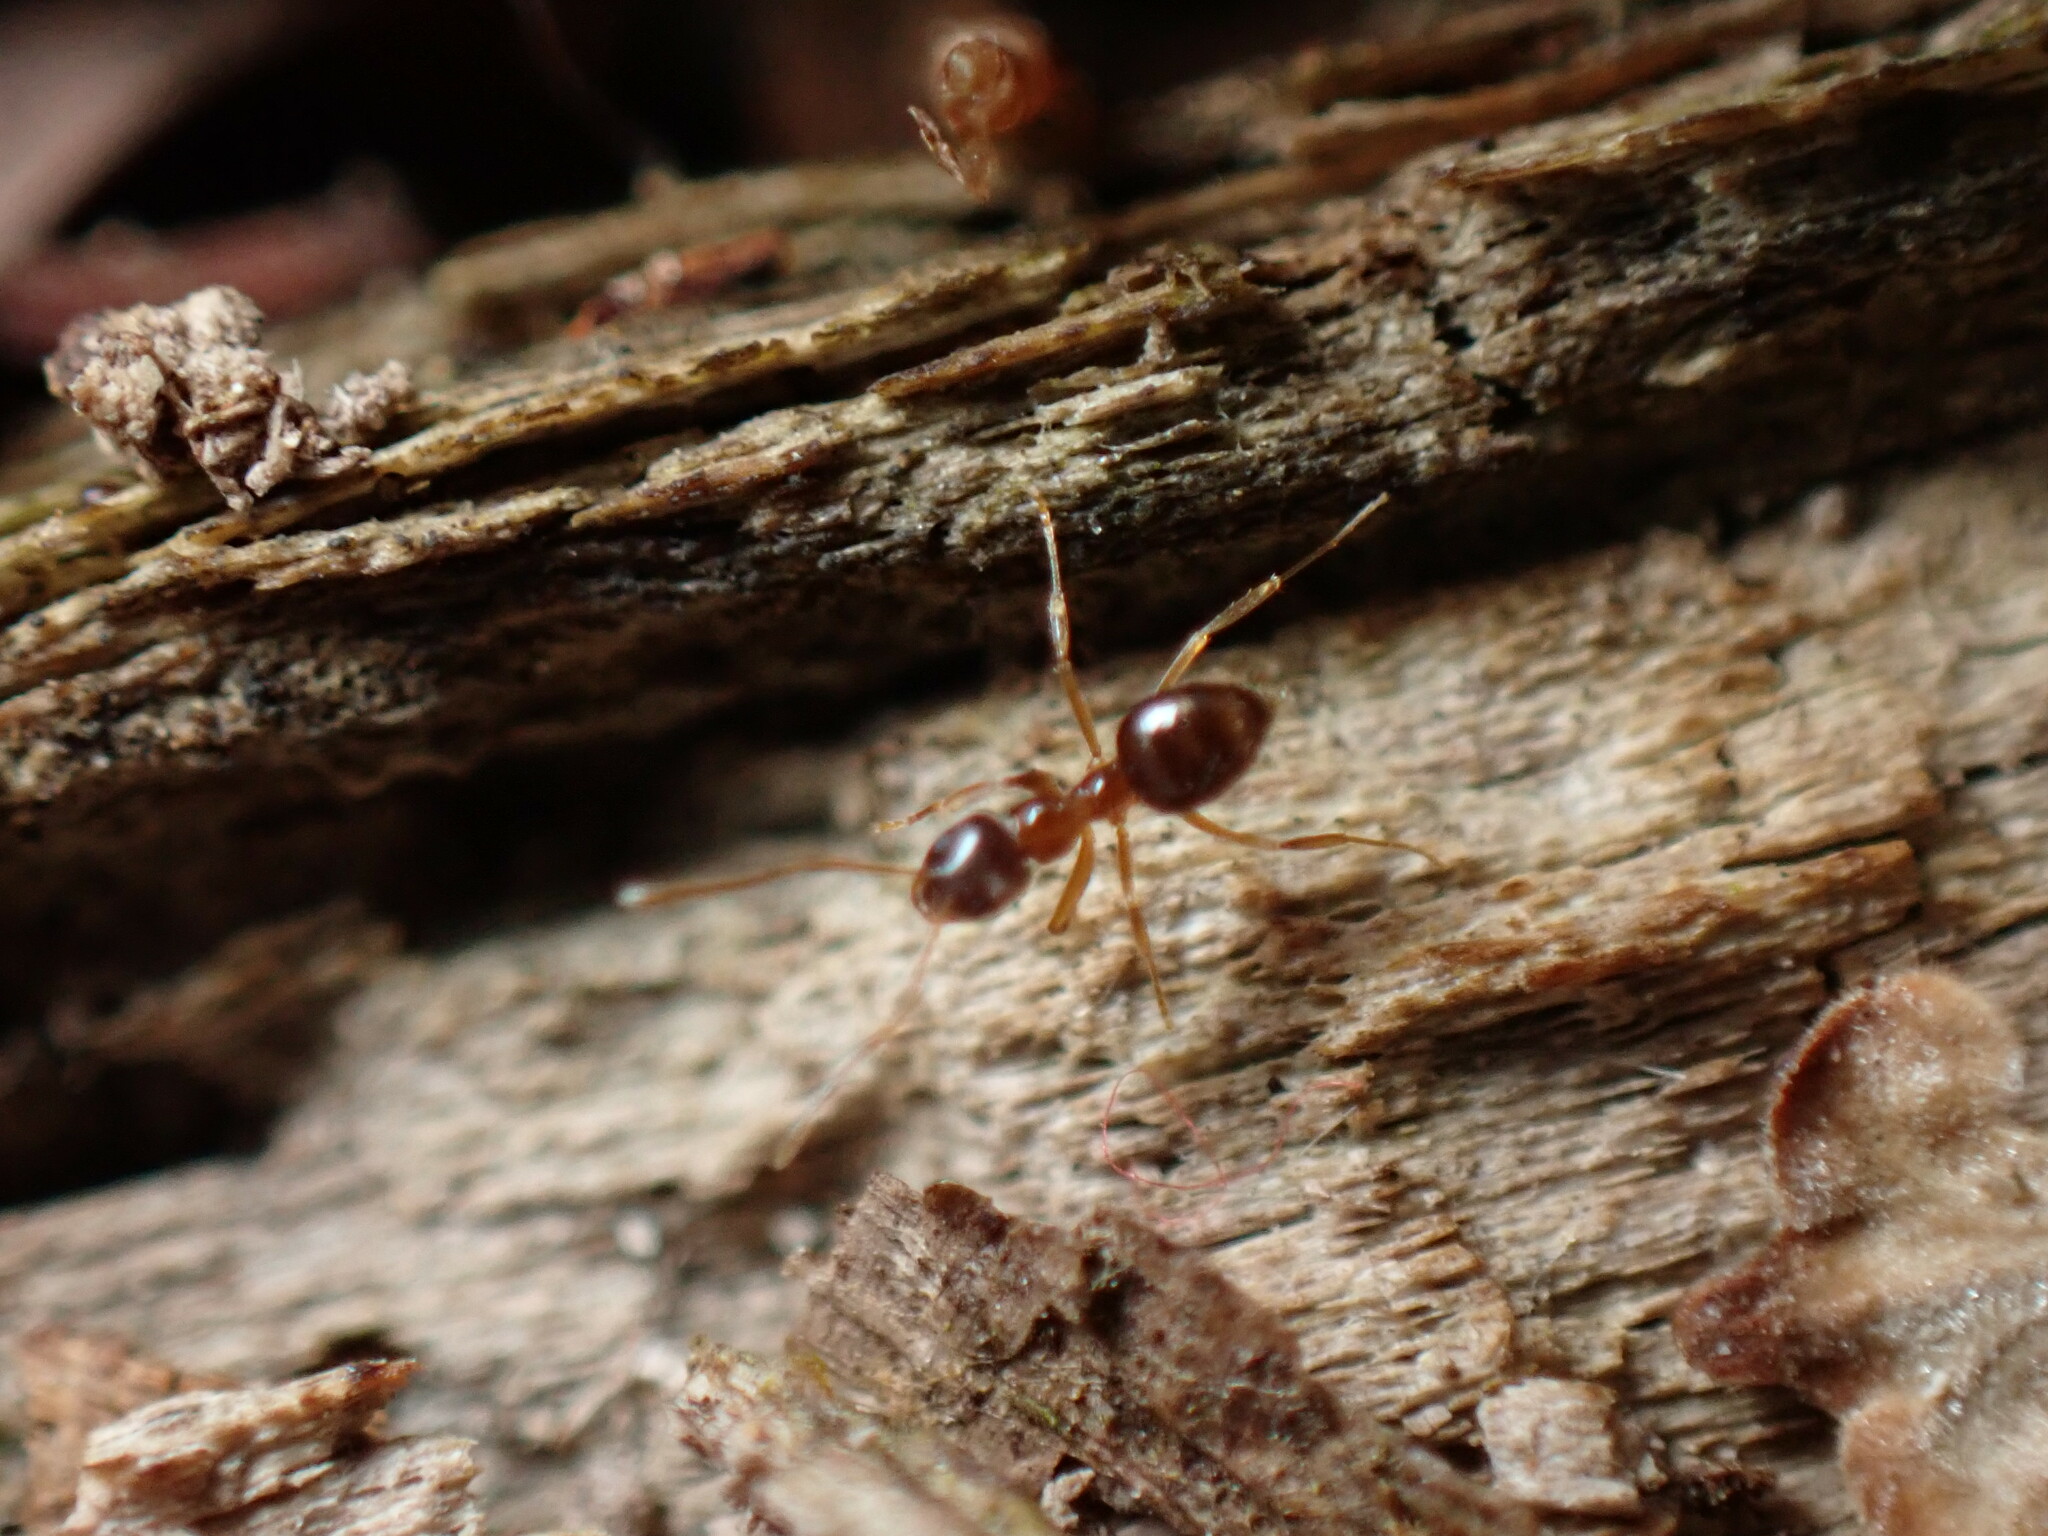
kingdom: Animalia
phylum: Arthropoda
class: Insecta
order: Hymenoptera
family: Formicidae
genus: Paratrechina
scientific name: Paratrechina flavipes
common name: Eastern asian formicine ant
